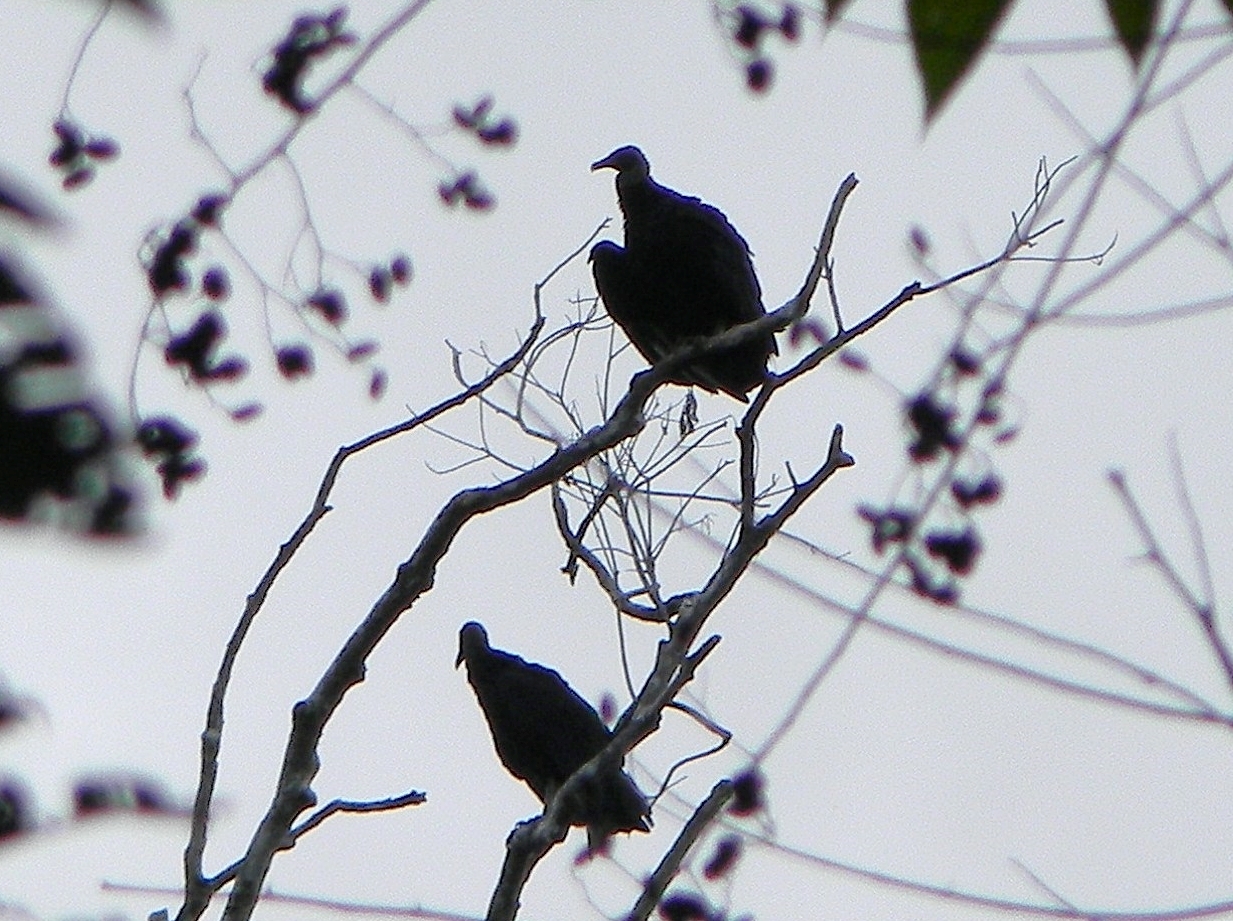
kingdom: Animalia
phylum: Chordata
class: Aves
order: Accipitriformes
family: Cathartidae
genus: Coragyps
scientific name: Coragyps atratus
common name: Black vulture
